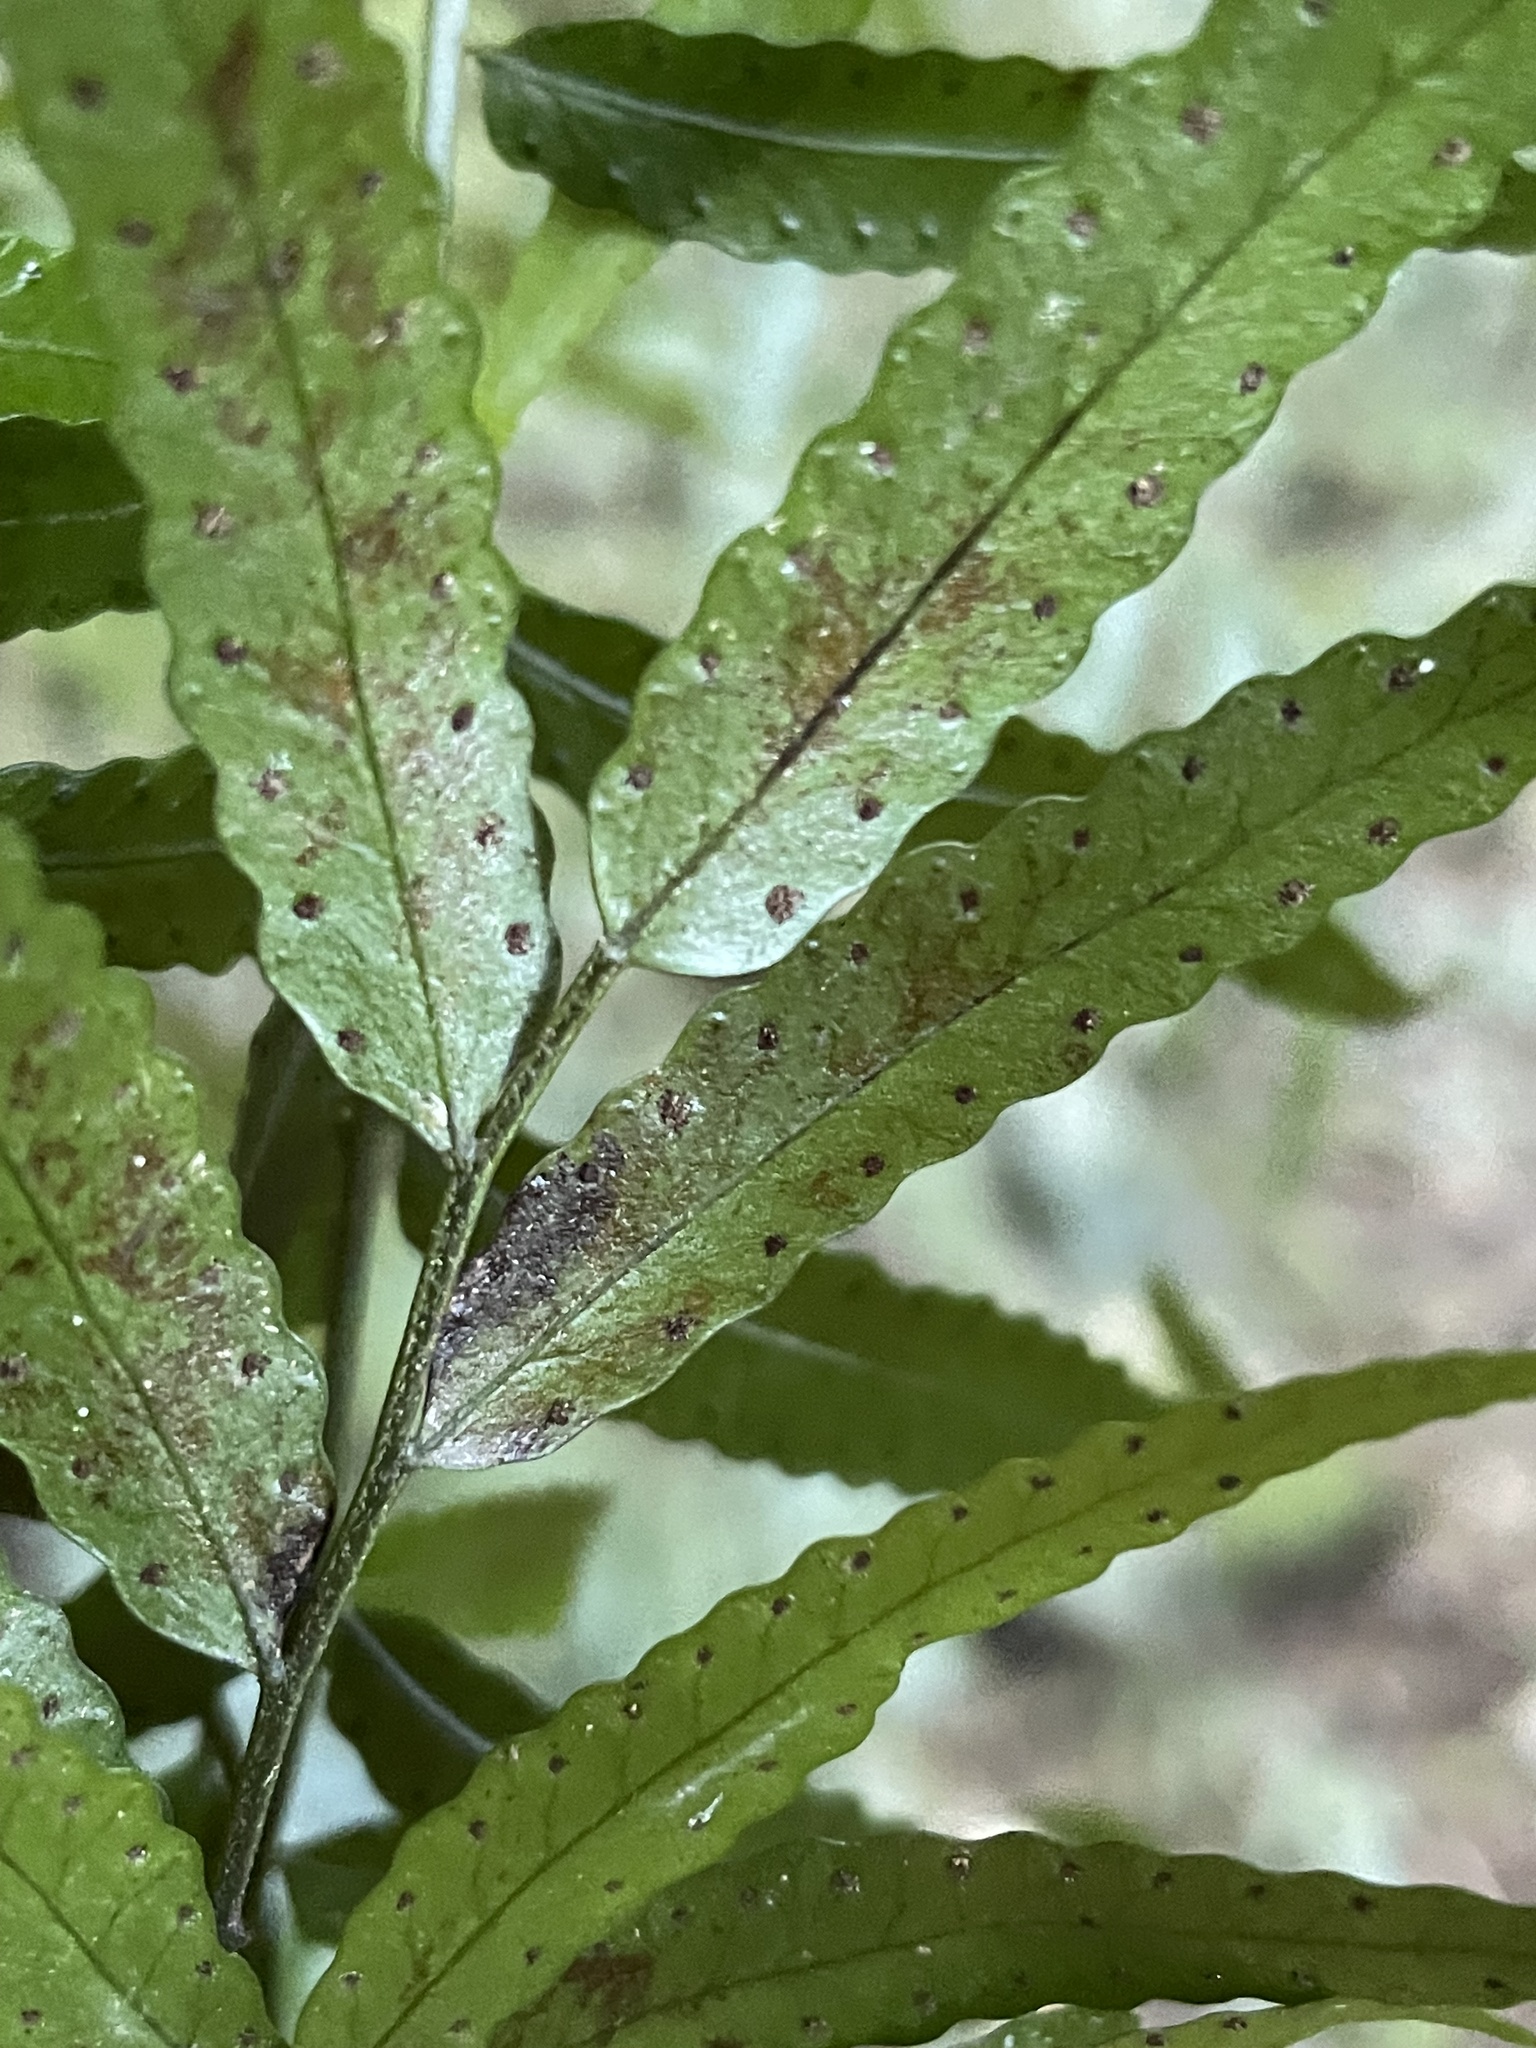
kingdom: Plantae
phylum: Tracheophyta
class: Polypodiopsida
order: Polypodiales
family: Tectariaceae
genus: Arthropteris
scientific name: Arthropteris tenella
